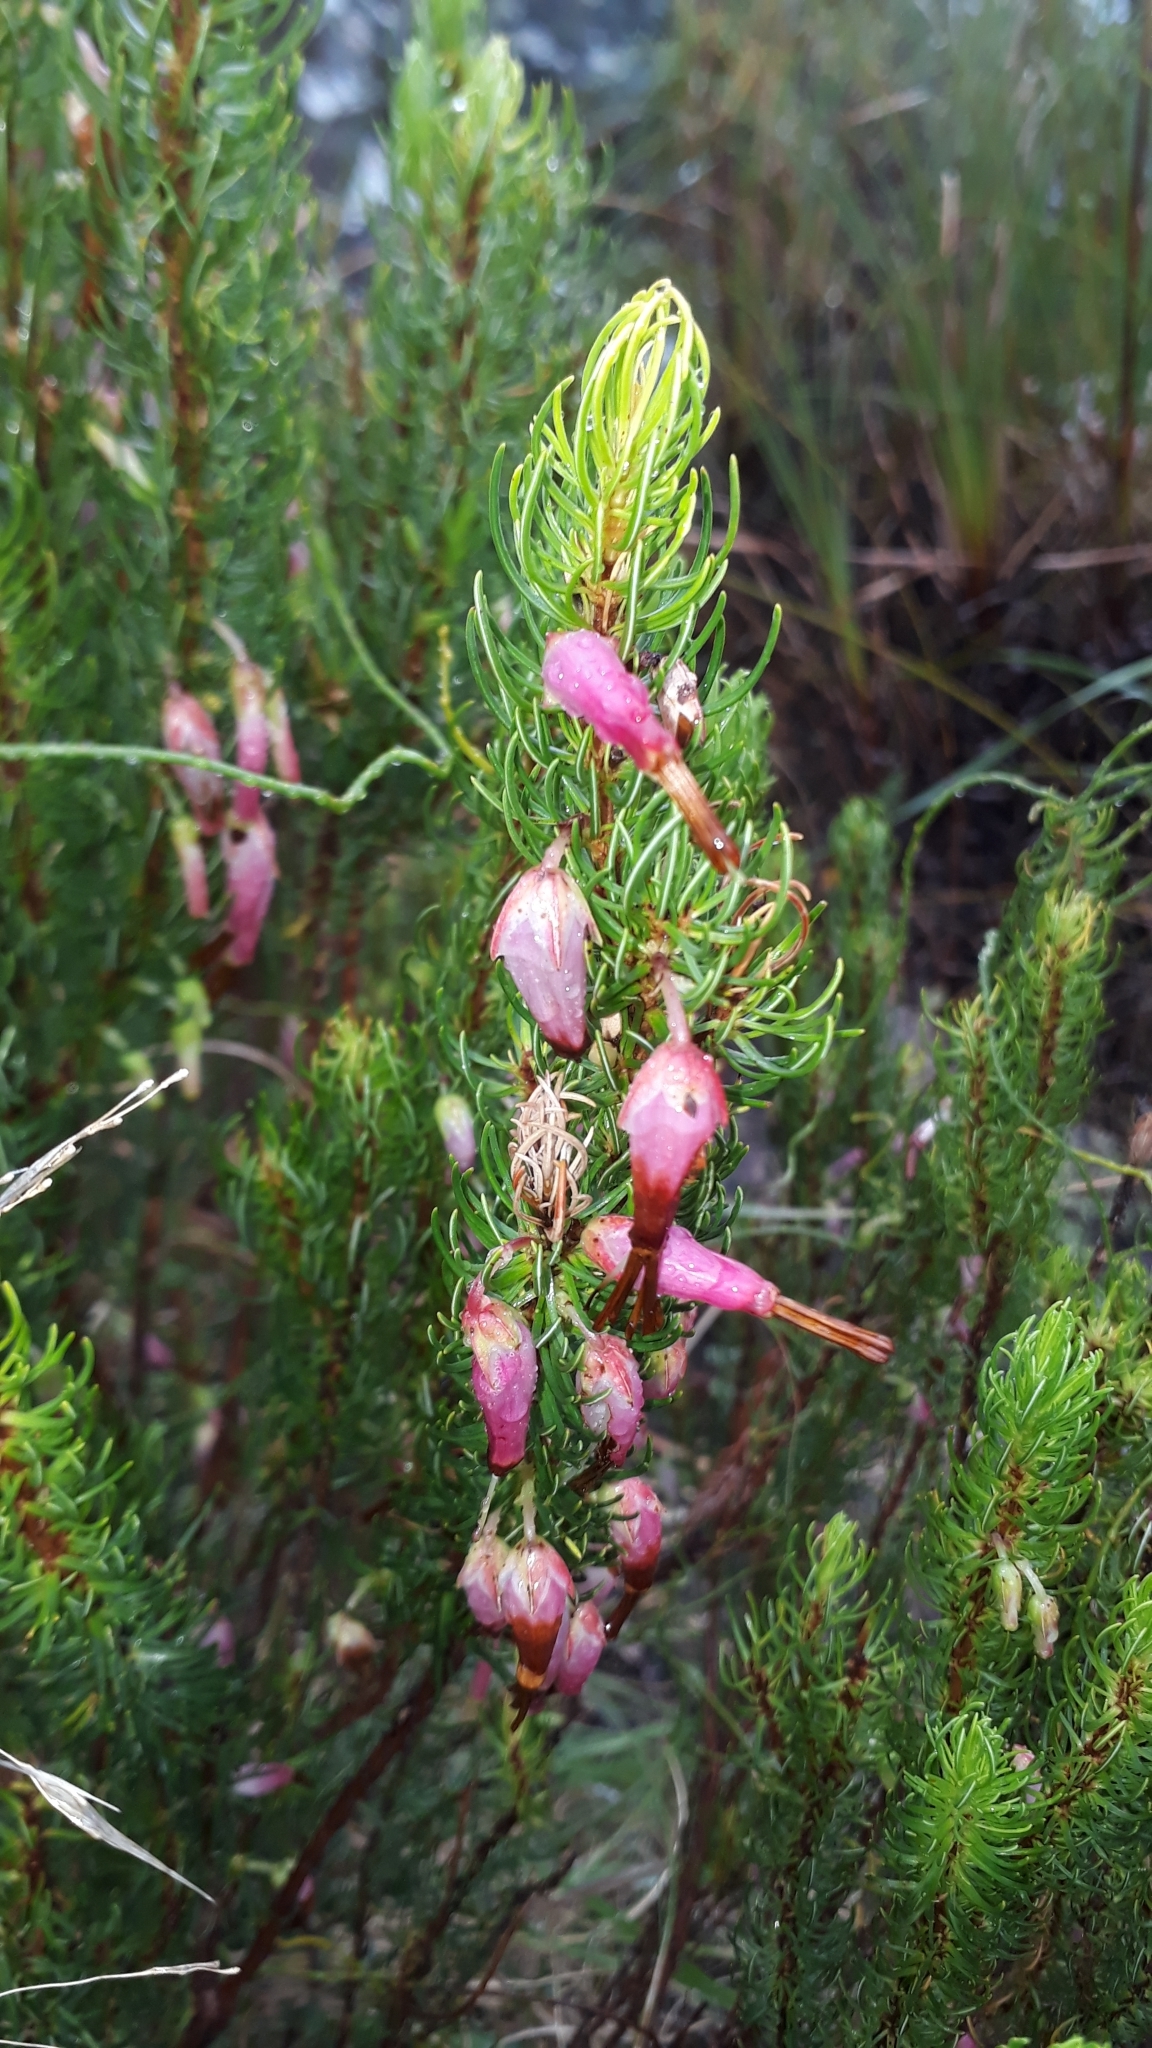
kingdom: Plantae
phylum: Tracheophyta
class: Magnoliopsida
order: Ericales
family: Ericaceae
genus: Erica
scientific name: Erica plukenetii
